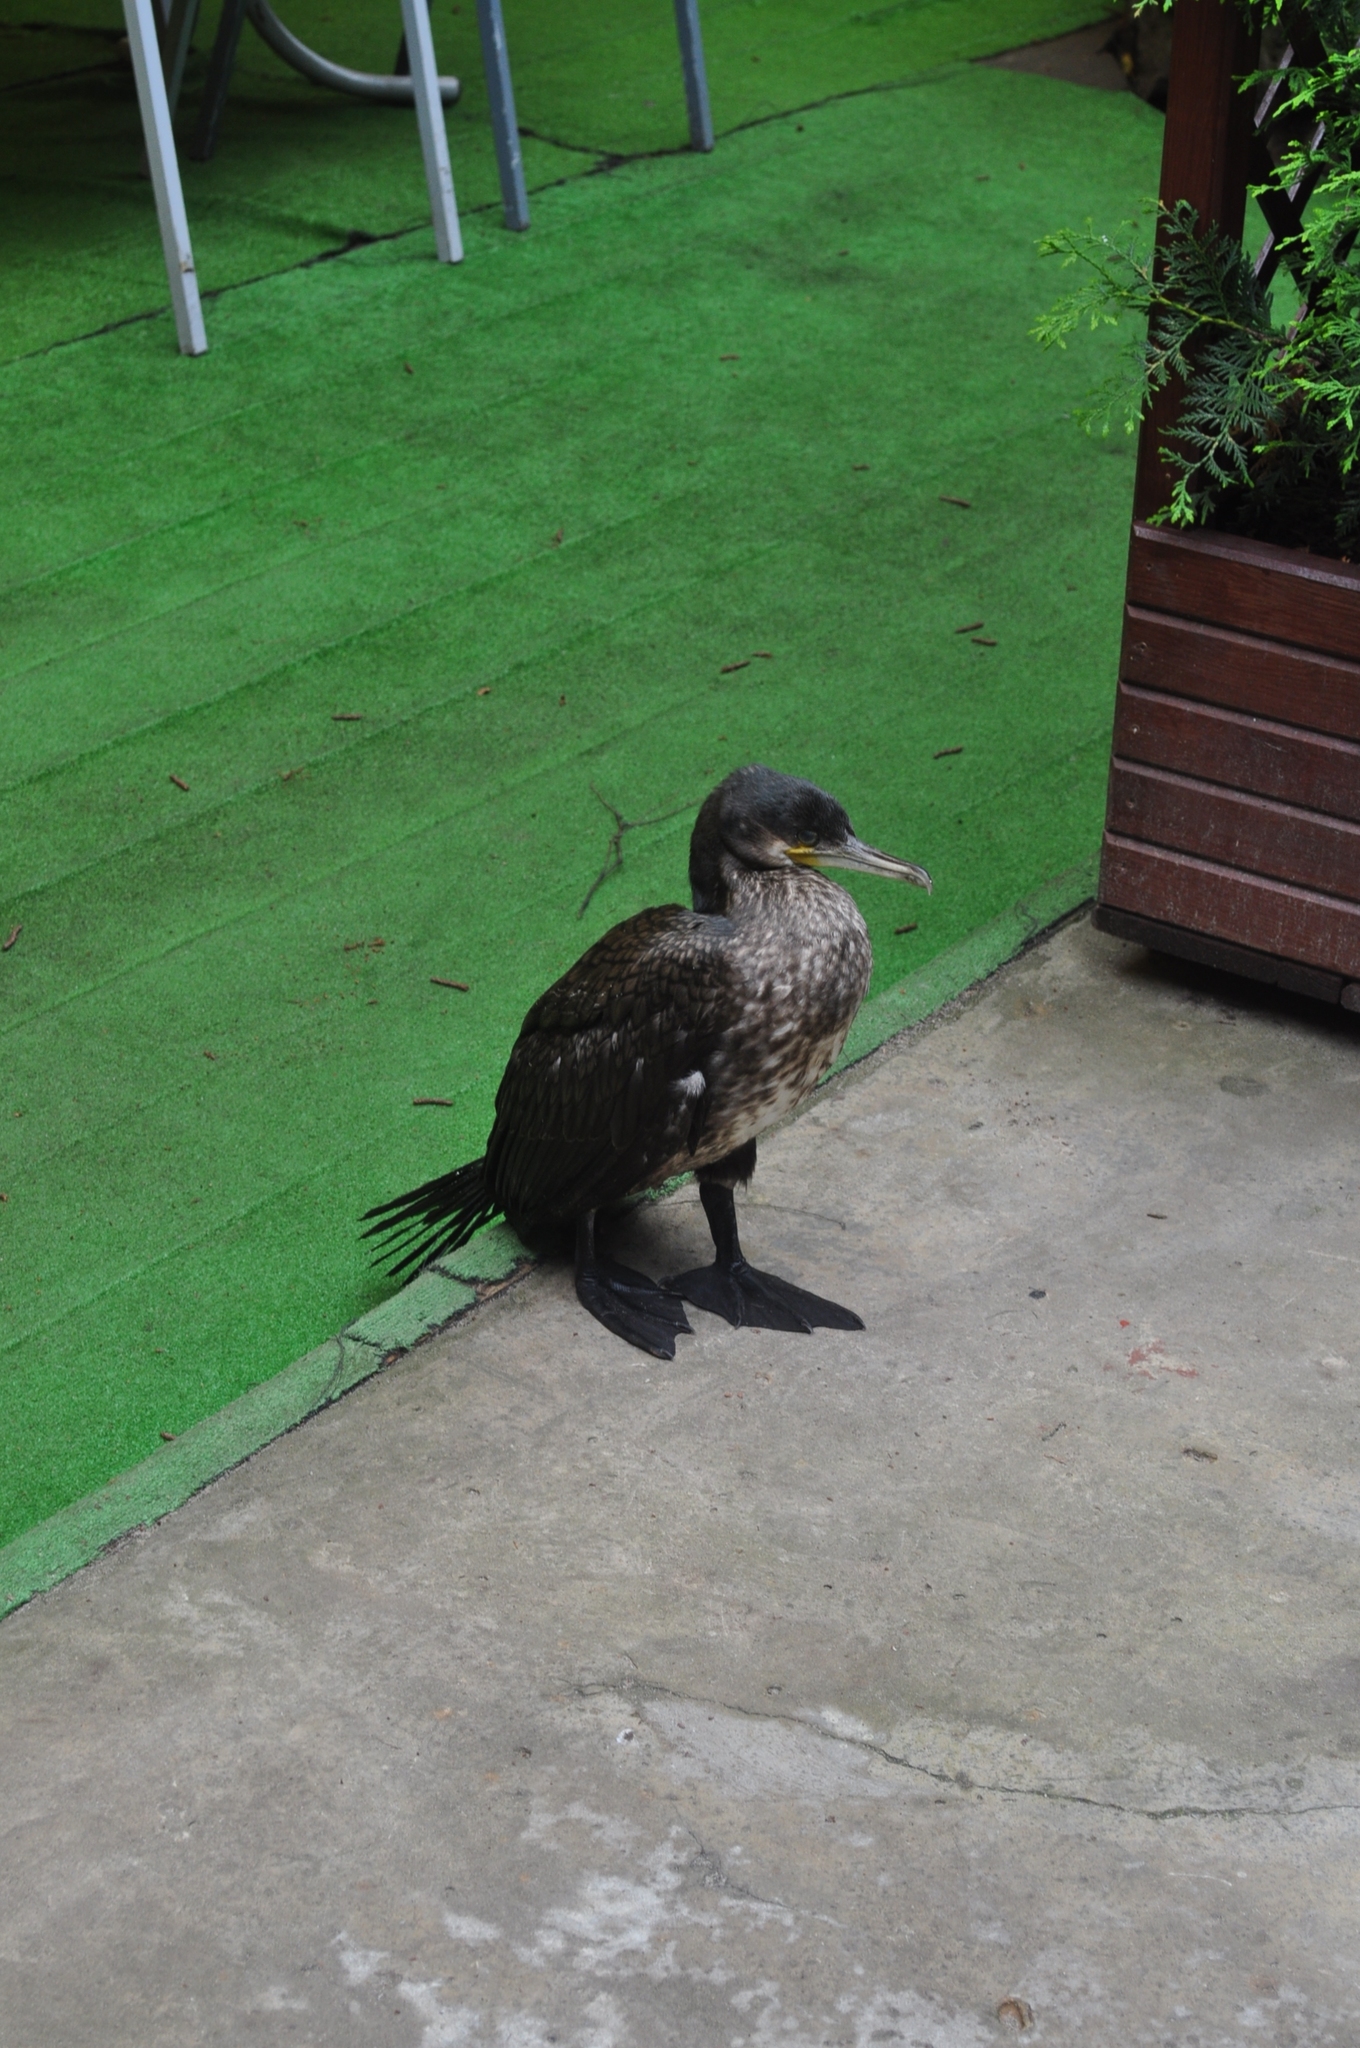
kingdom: Animalia
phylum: Chordata
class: Aves
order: Suliformes
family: Phalacrocoracidae
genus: Phalacrocorax
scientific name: Phalacrocorax carbo
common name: Great cormorant
